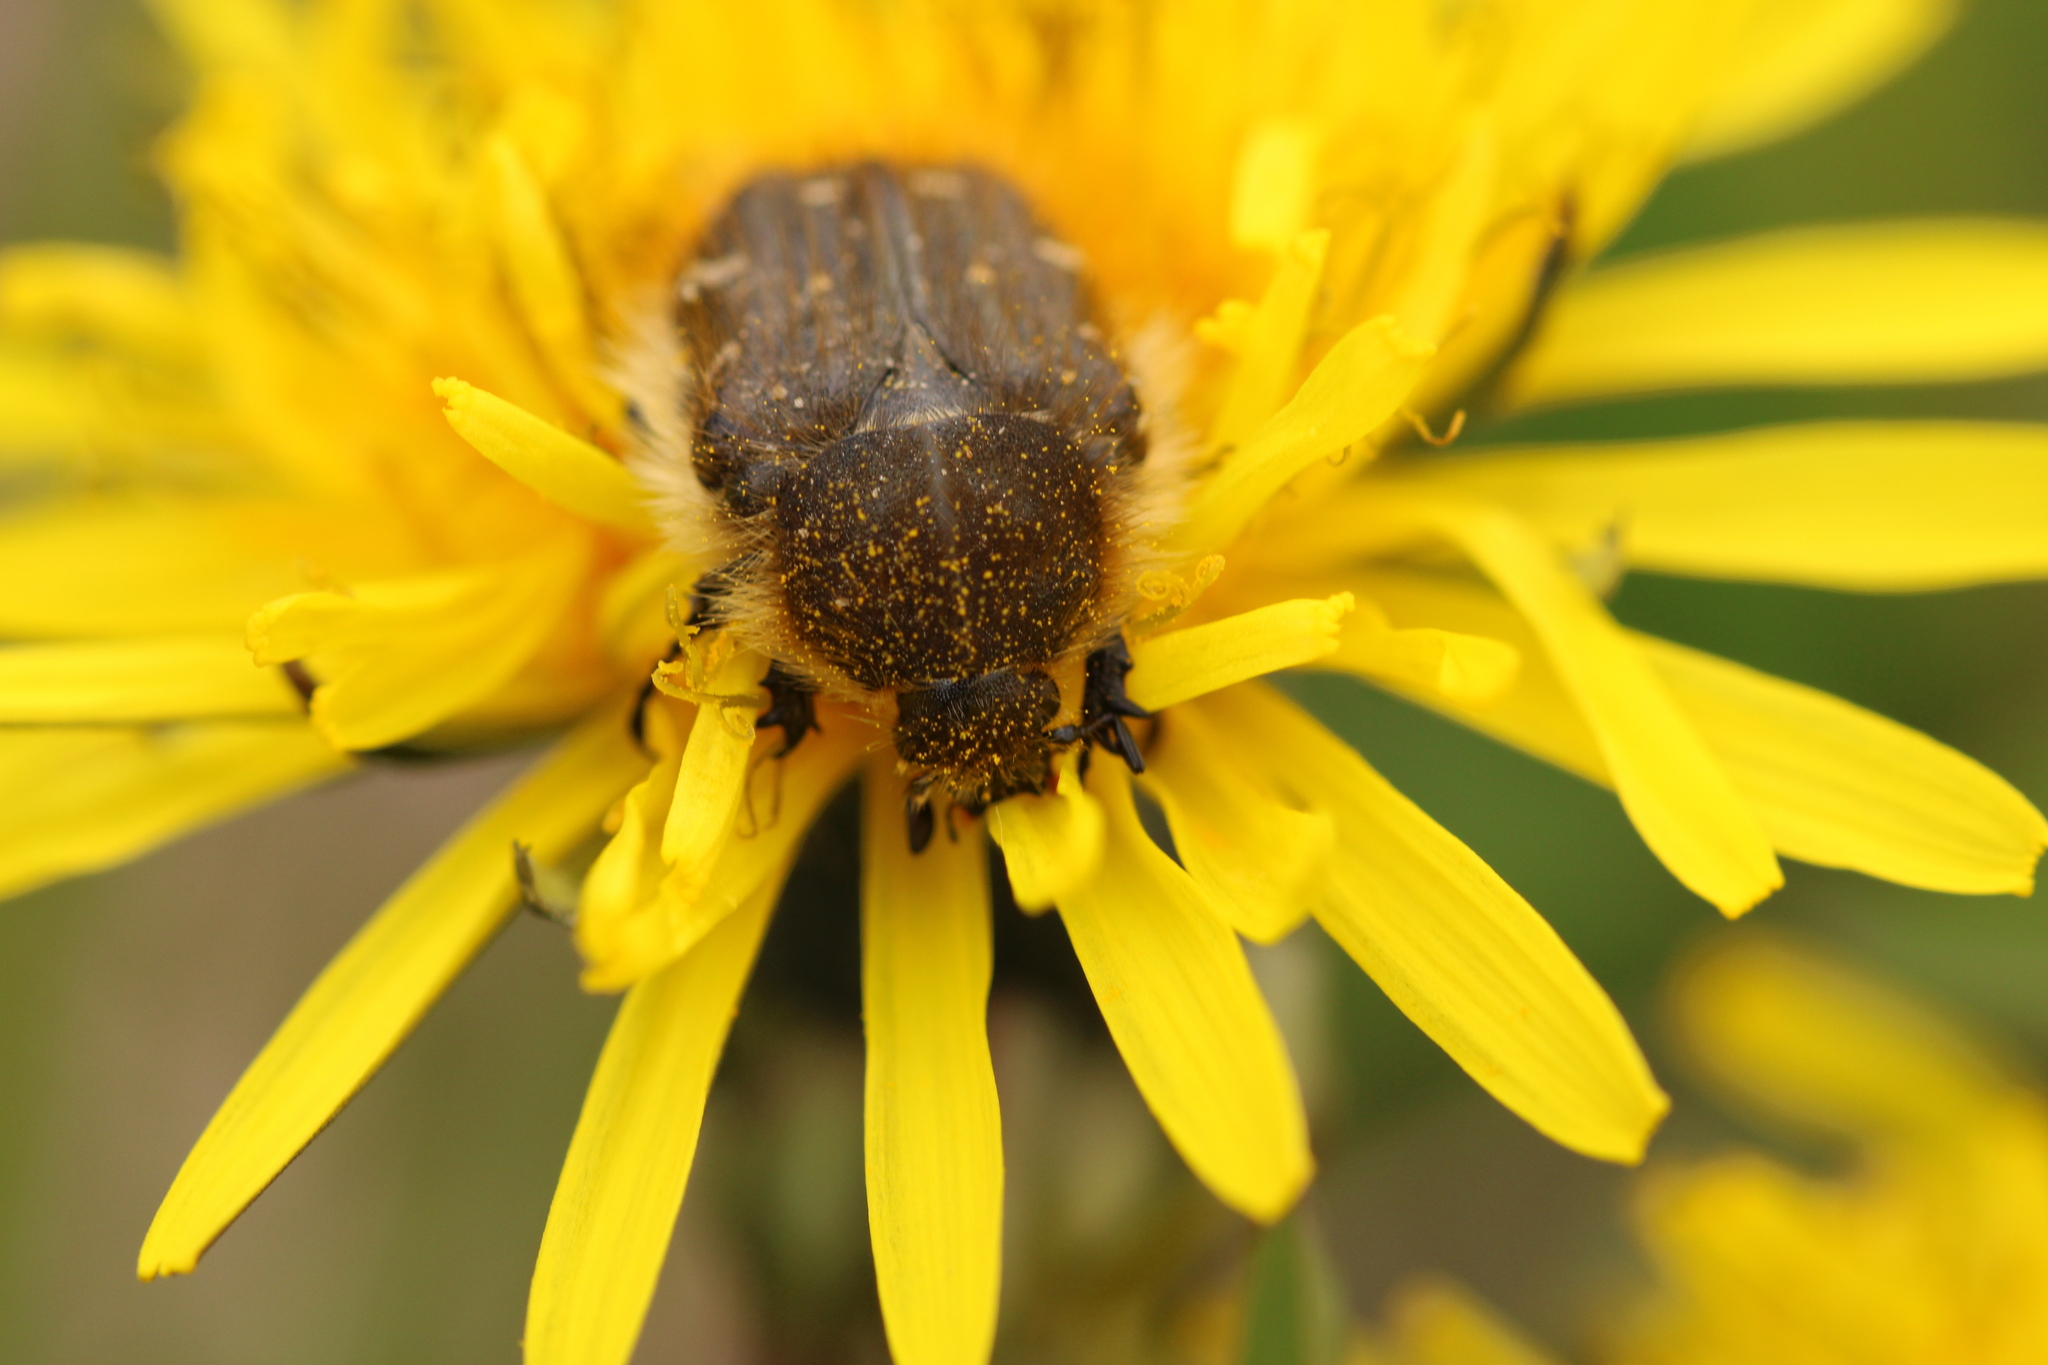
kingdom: Animalia
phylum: Arthropoda
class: Insecta
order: Coleoptera
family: Scarabaeidae
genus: Tropinota
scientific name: Tropinota hirta
